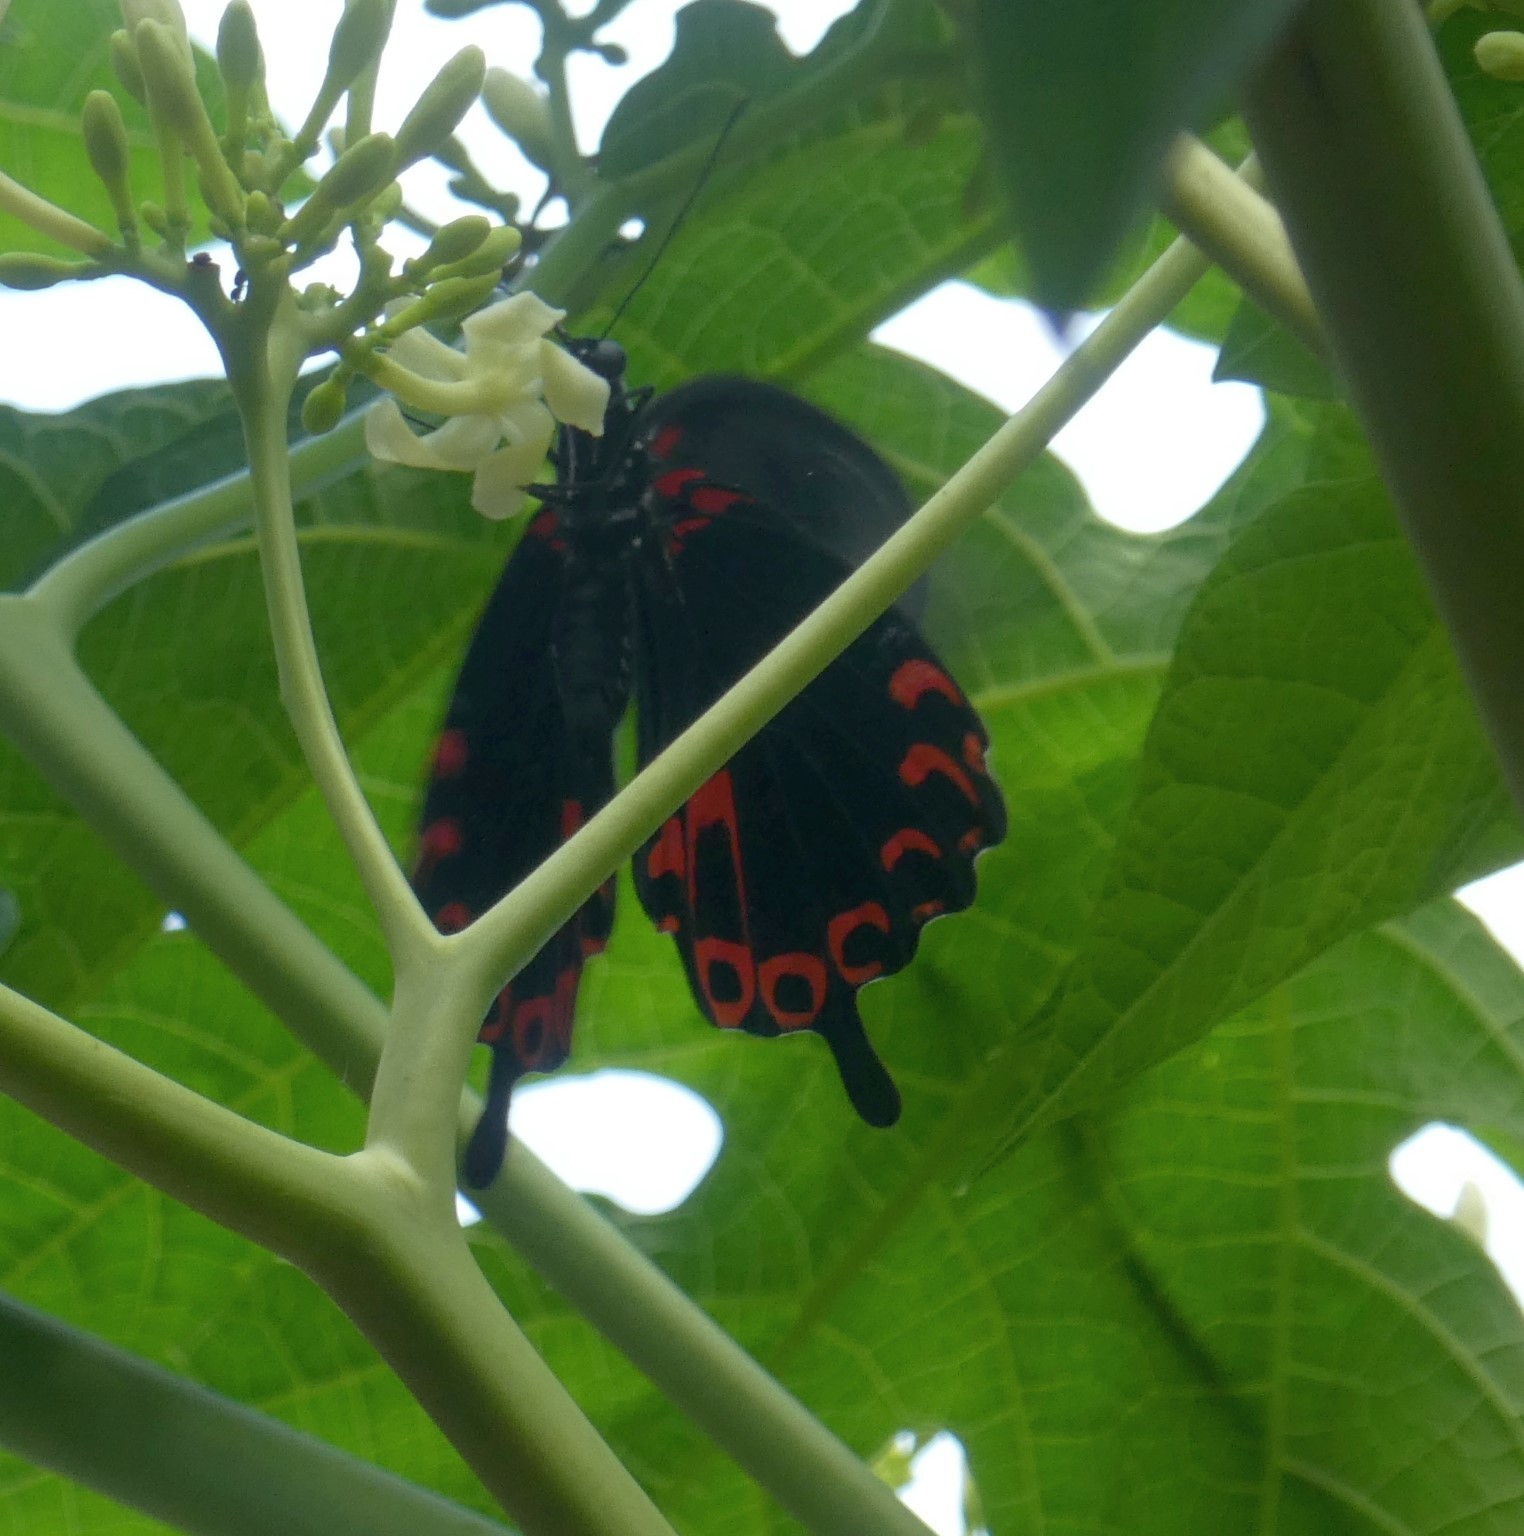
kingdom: Animalia
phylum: Arthropoda
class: Insecta
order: Lepidoptera
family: Papilionidae
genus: Papilio
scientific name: Papilio deiphobus
